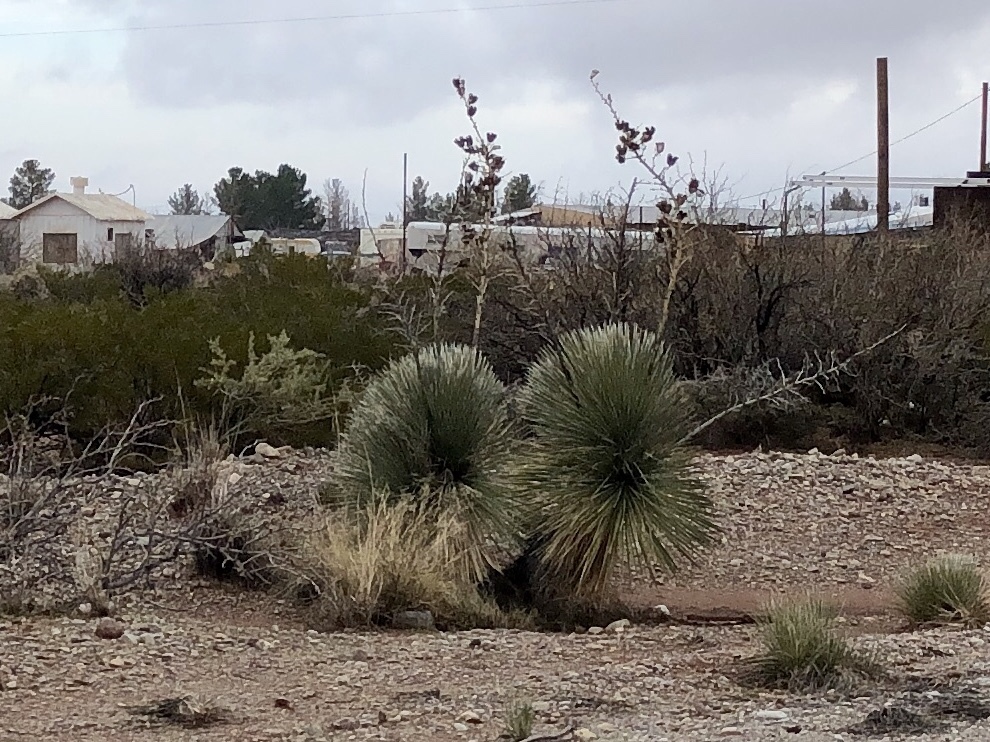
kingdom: Plantae
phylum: Tracheophyta
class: Liliopsida
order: Asparagales
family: Asparagaceae
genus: Yucca
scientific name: Yucca elata
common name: Palmella
